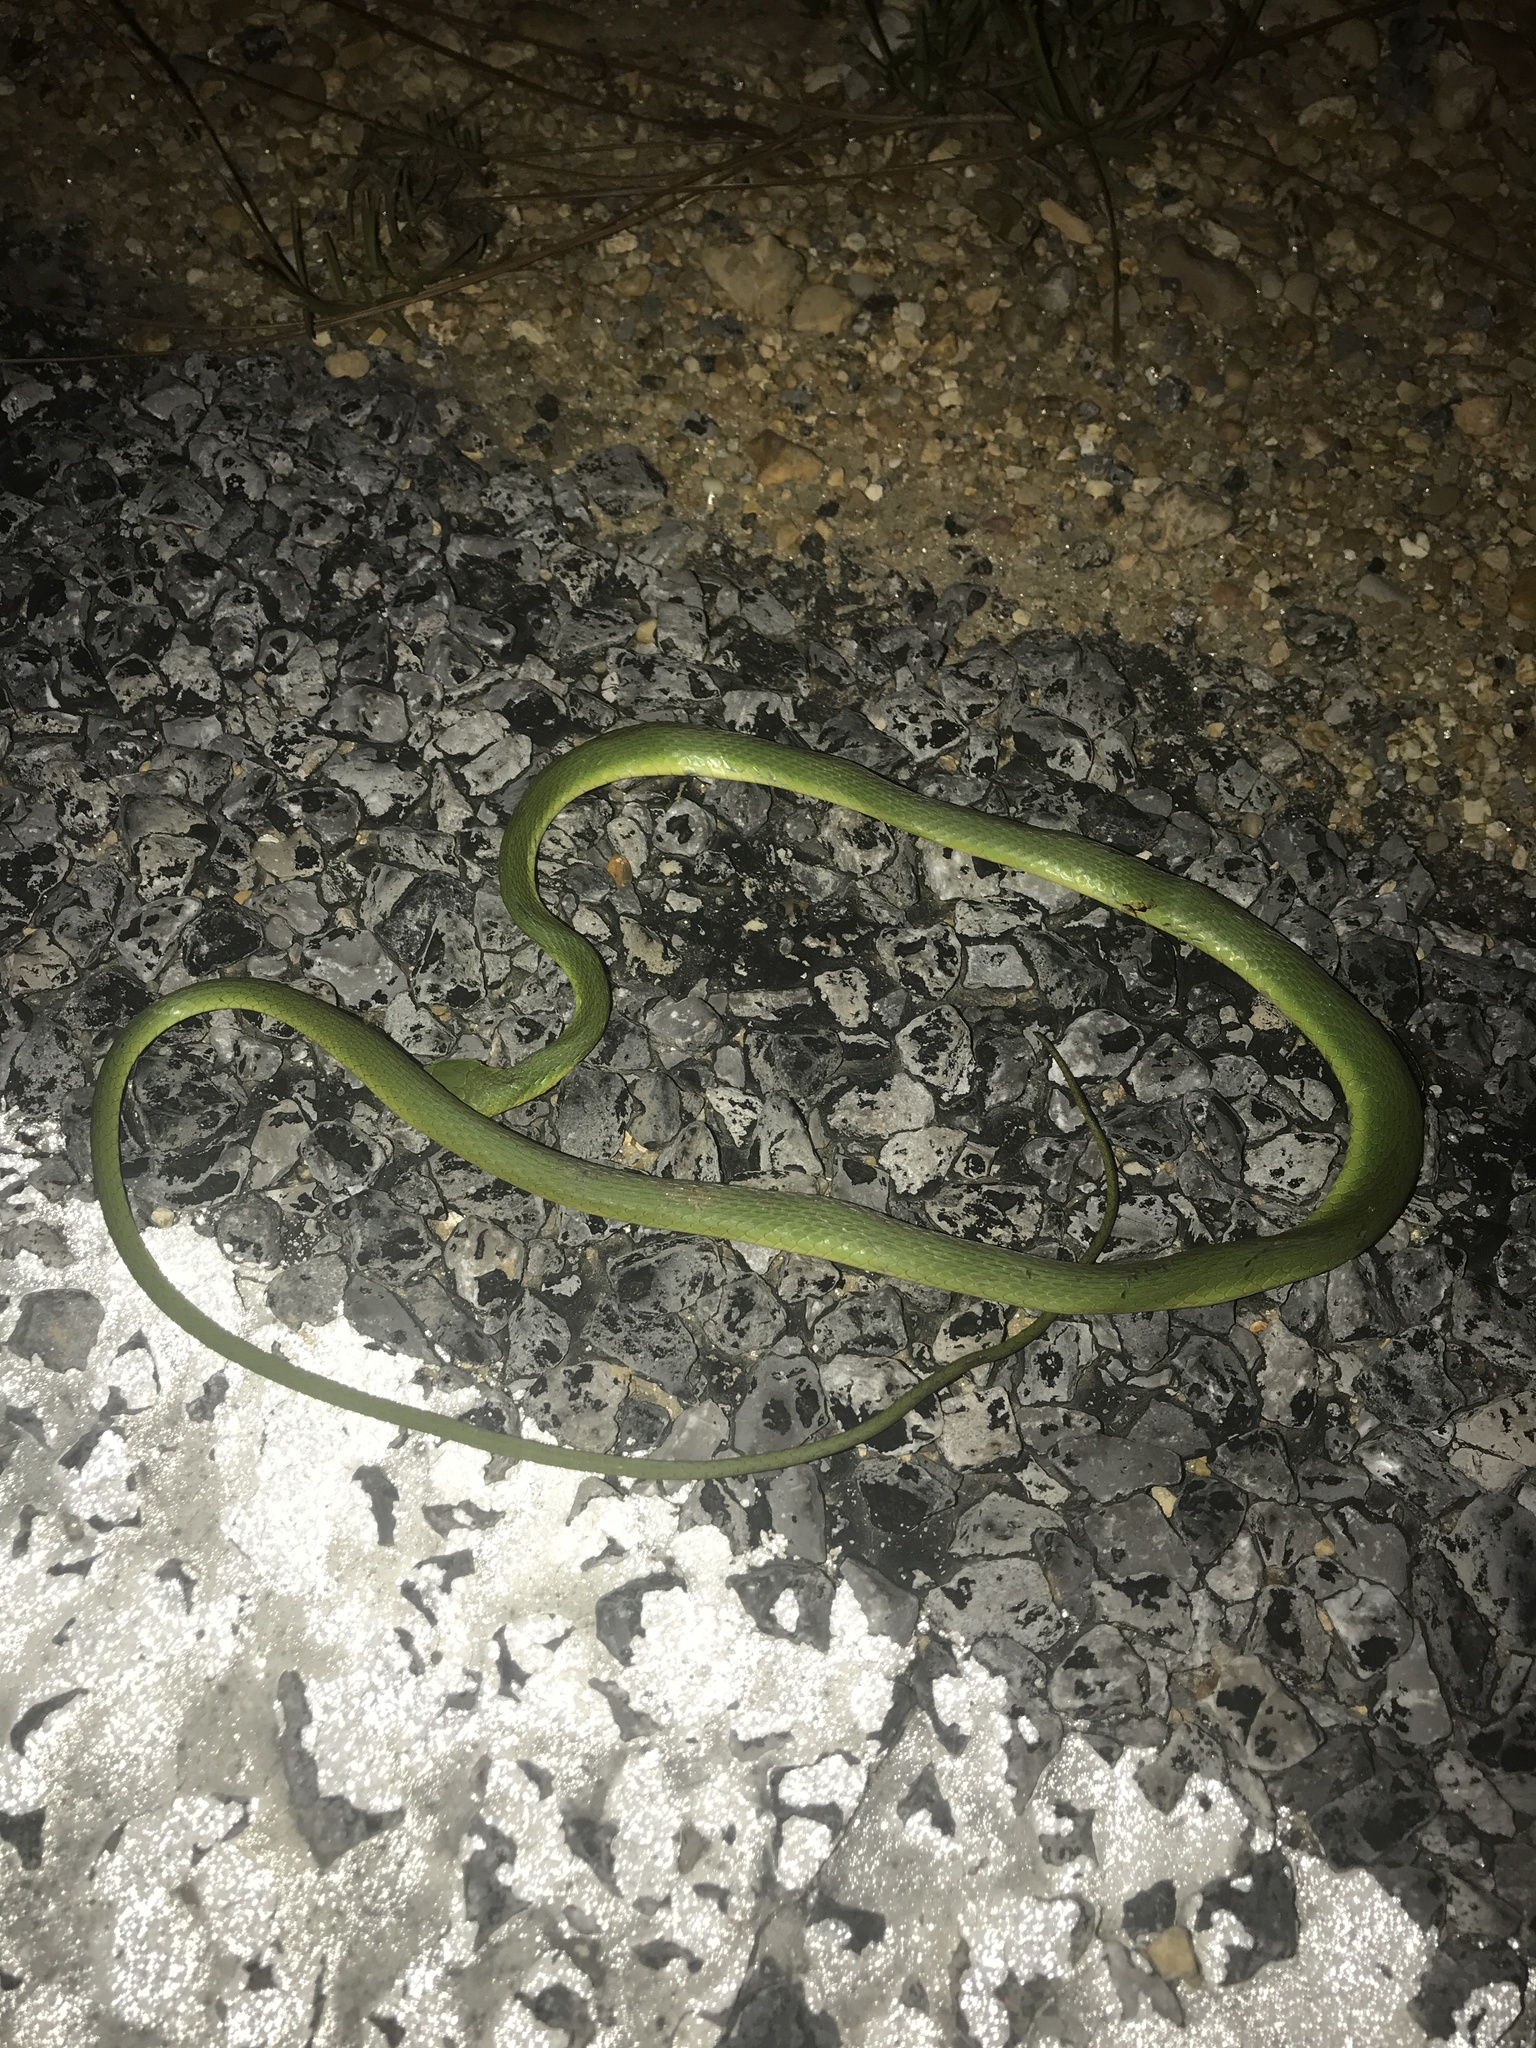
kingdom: Animalia
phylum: Chordata
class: Squamata
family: Colubridae
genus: Opheodrys
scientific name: Opheodrys aestivus
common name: Rough greensnake
